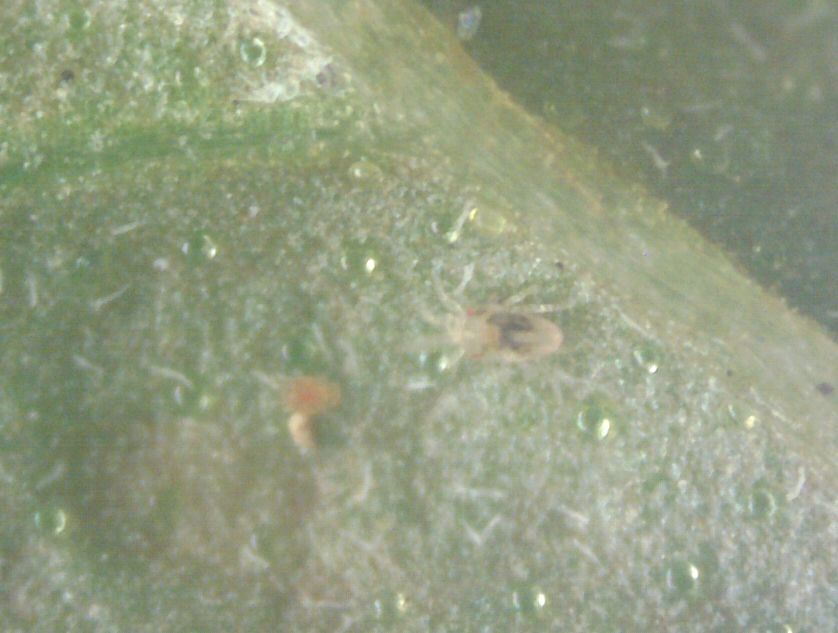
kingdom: Animalia
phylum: Arthropoda
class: Arachnida
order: Trombidiformes
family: Tetranychidae
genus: Tetranychus
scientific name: Tetranychus urticae
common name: Carmine spider mite
